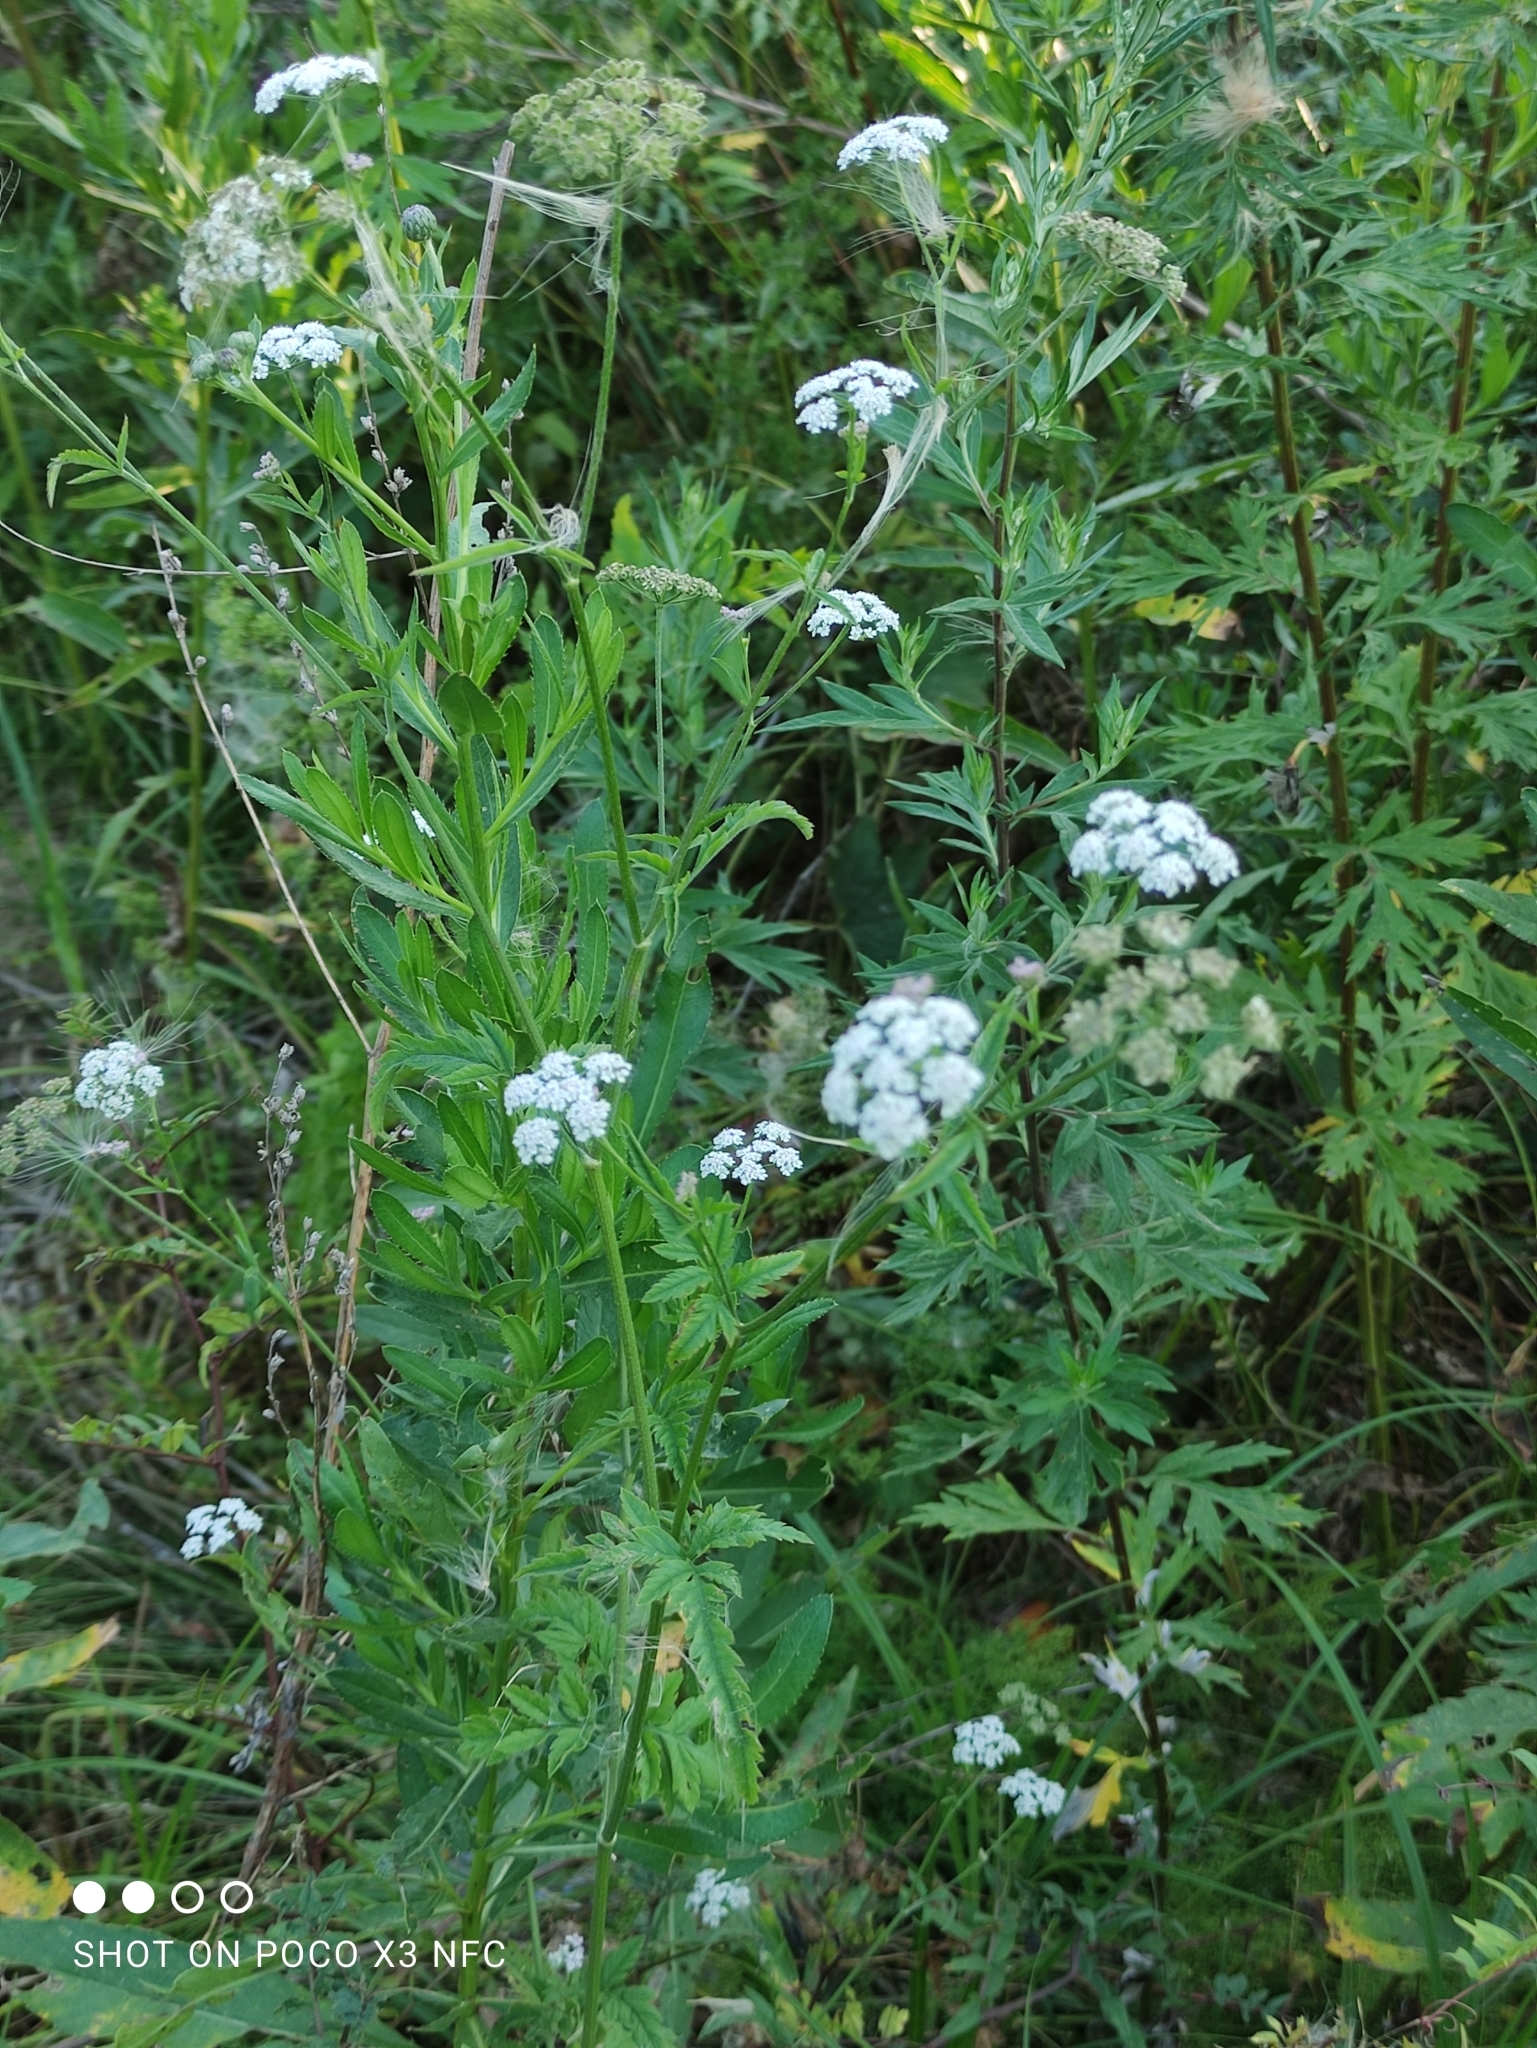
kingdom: Plantae
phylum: Tracheophyta
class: Magnoliopsida
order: Apiales
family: Apiaceae
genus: Torilis
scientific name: Torilis japonica
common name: Upright hedge-parsley
